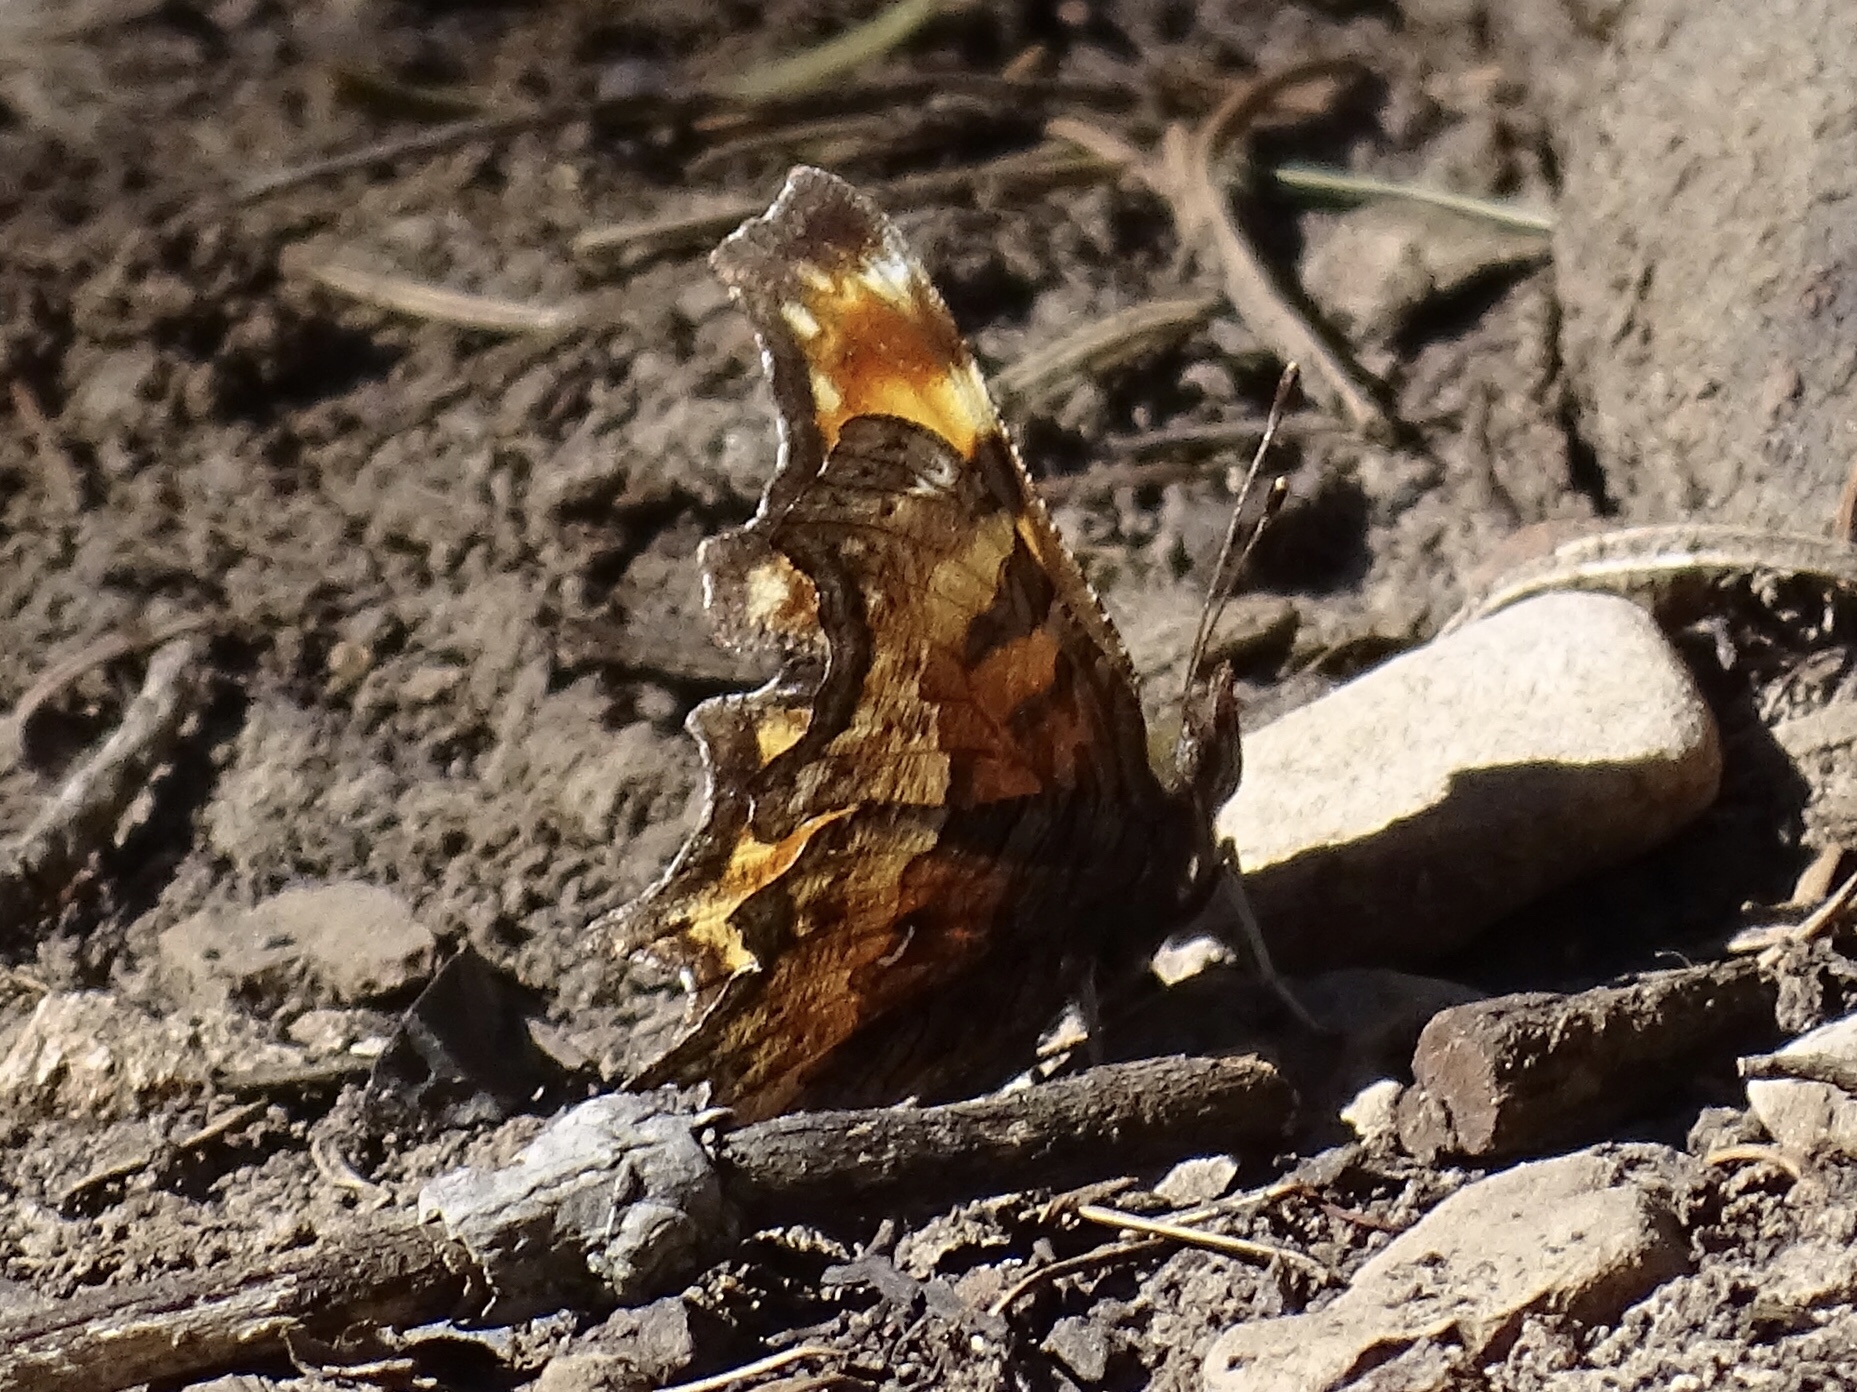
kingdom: Animalia
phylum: Arthropoda
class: Insecta
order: Lepidoptera
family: Nymphalidae
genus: Polygonia
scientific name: Polygonia gracilis
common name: Hoary comma
